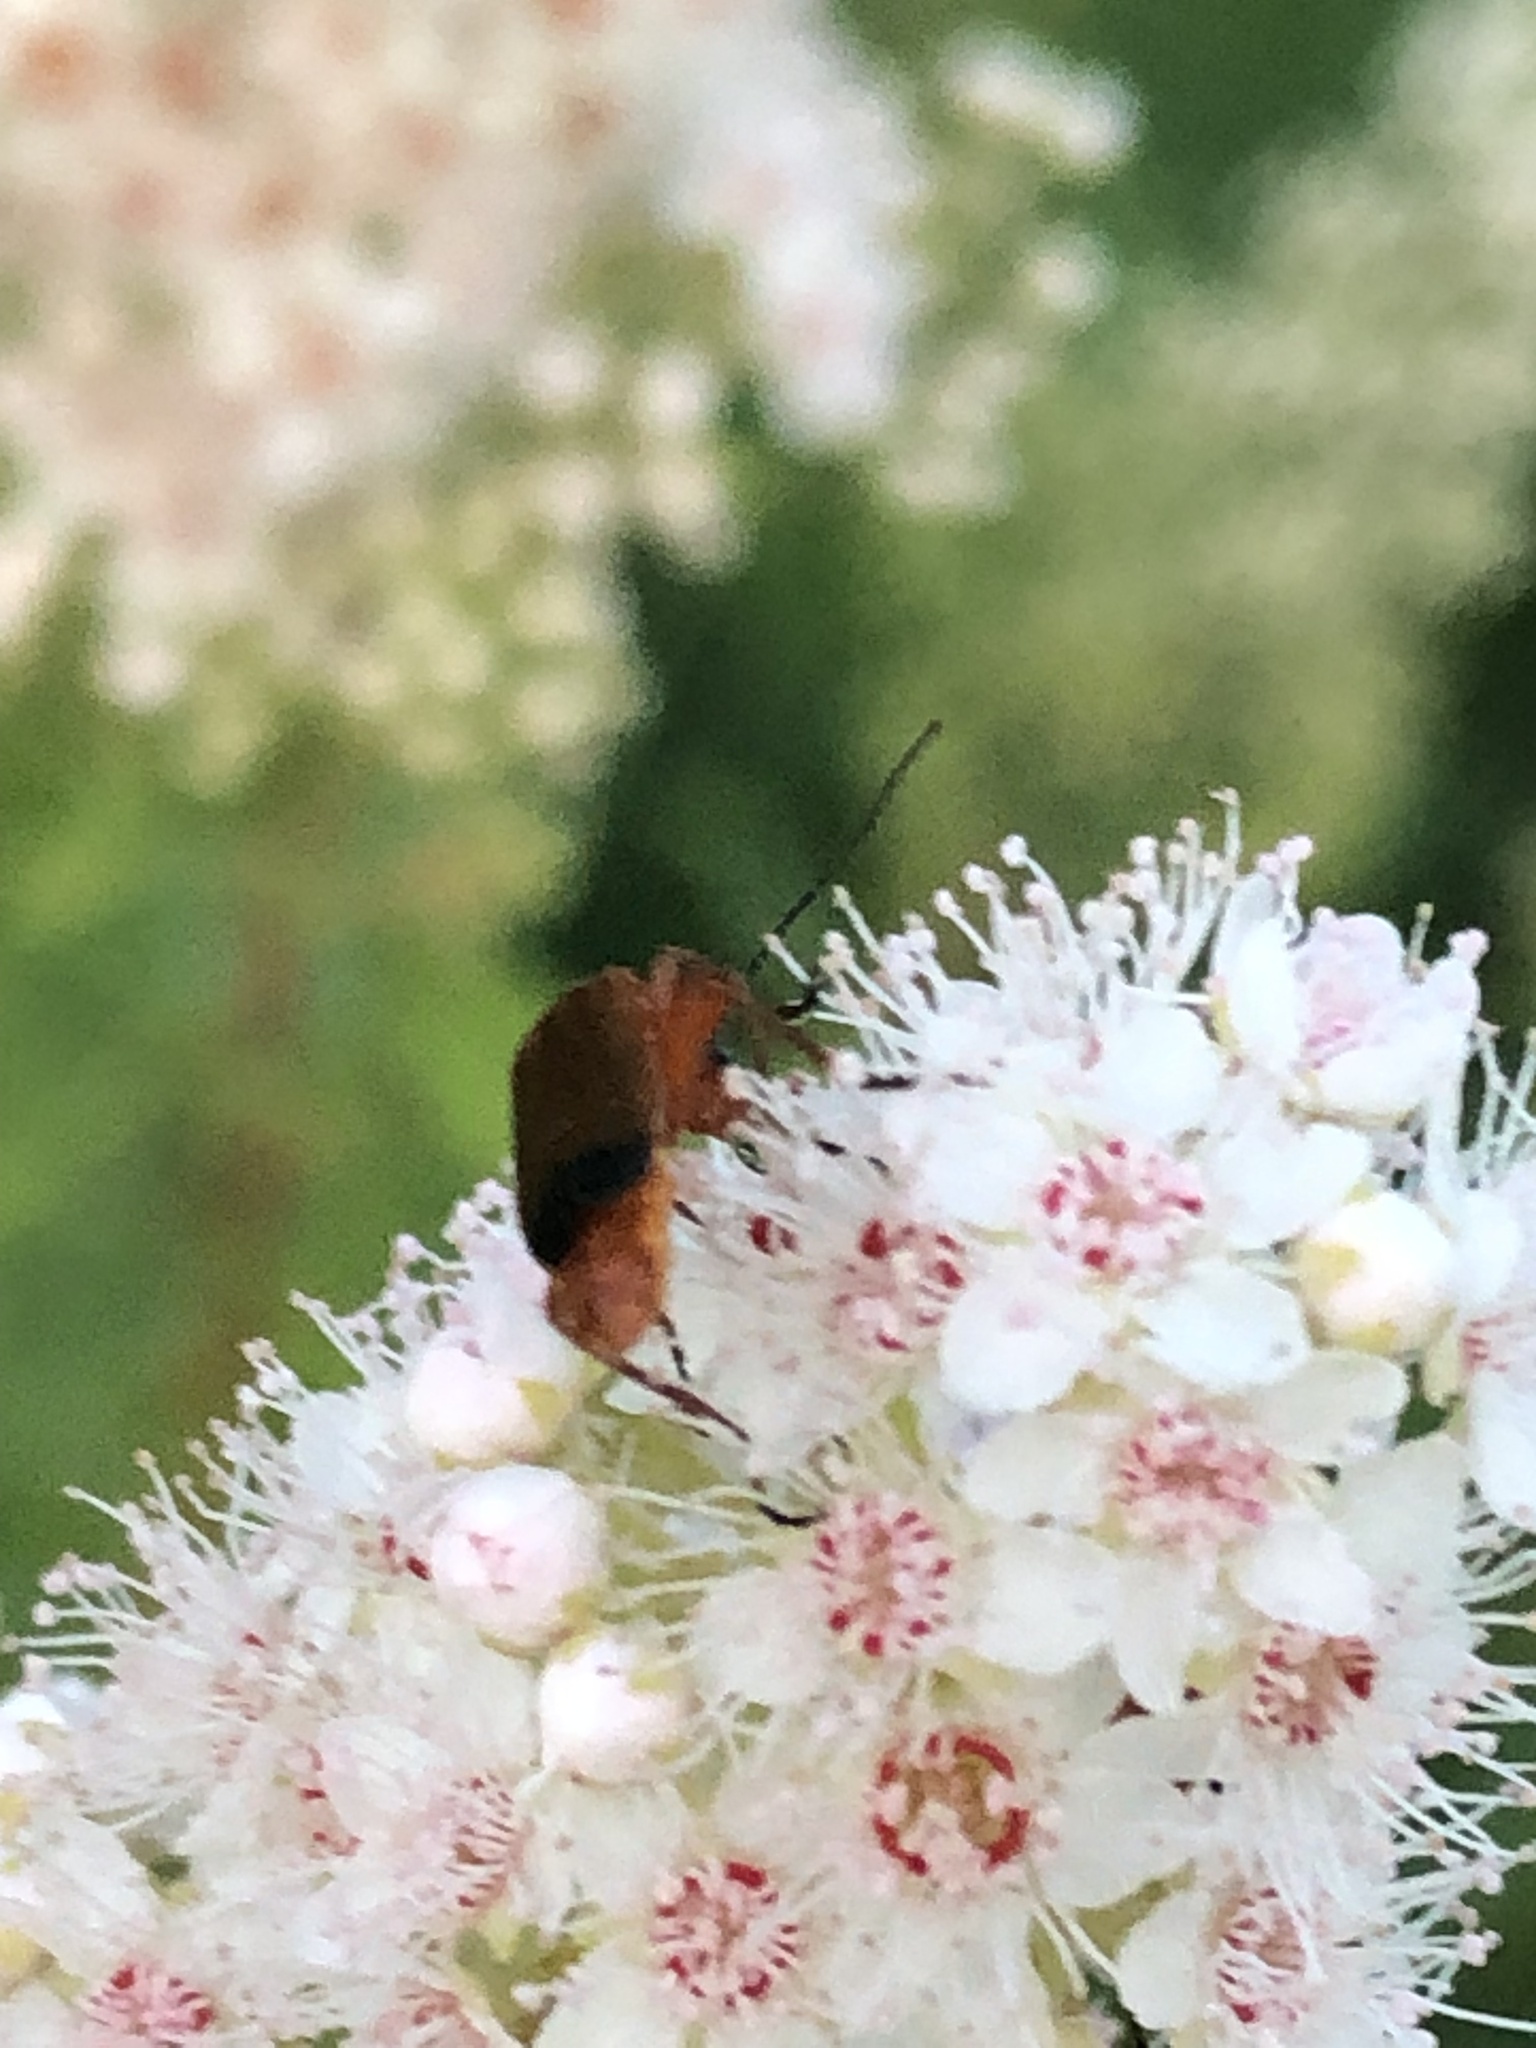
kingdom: Animalia
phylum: Arthropoda
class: Insecta
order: Coleoptera
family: Cantharidae
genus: Rhagonycha
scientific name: Rhagonycha fulva
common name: Common red soldier beetle
